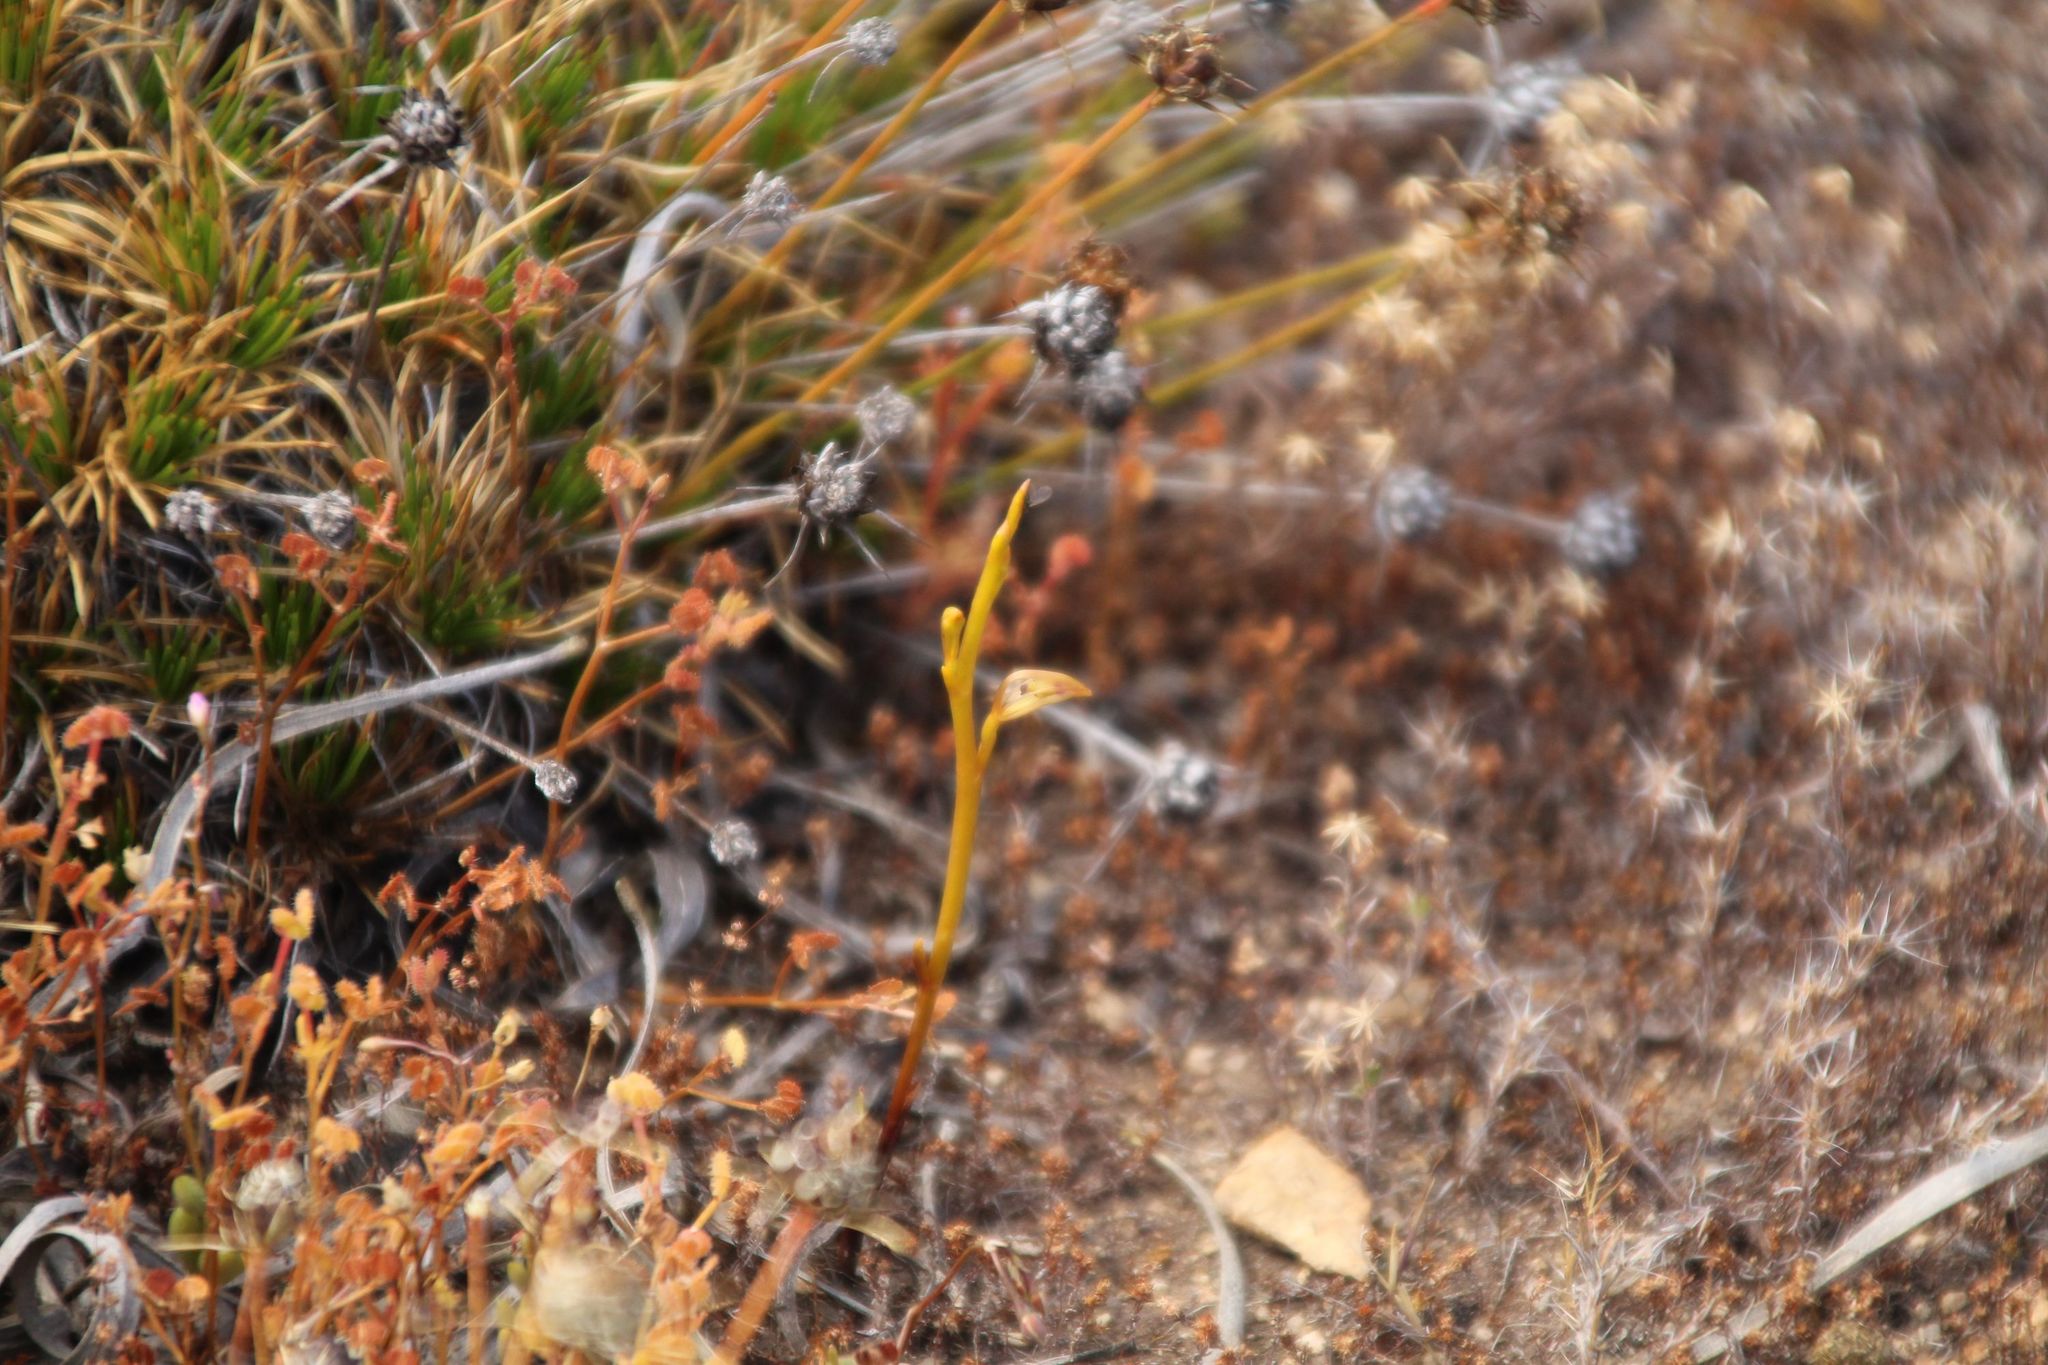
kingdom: Plantae
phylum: Tracheophyta
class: Liliopsida
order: Asparagales
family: Orchidaceae
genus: Spiculaea
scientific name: Spiculaea ciliata
